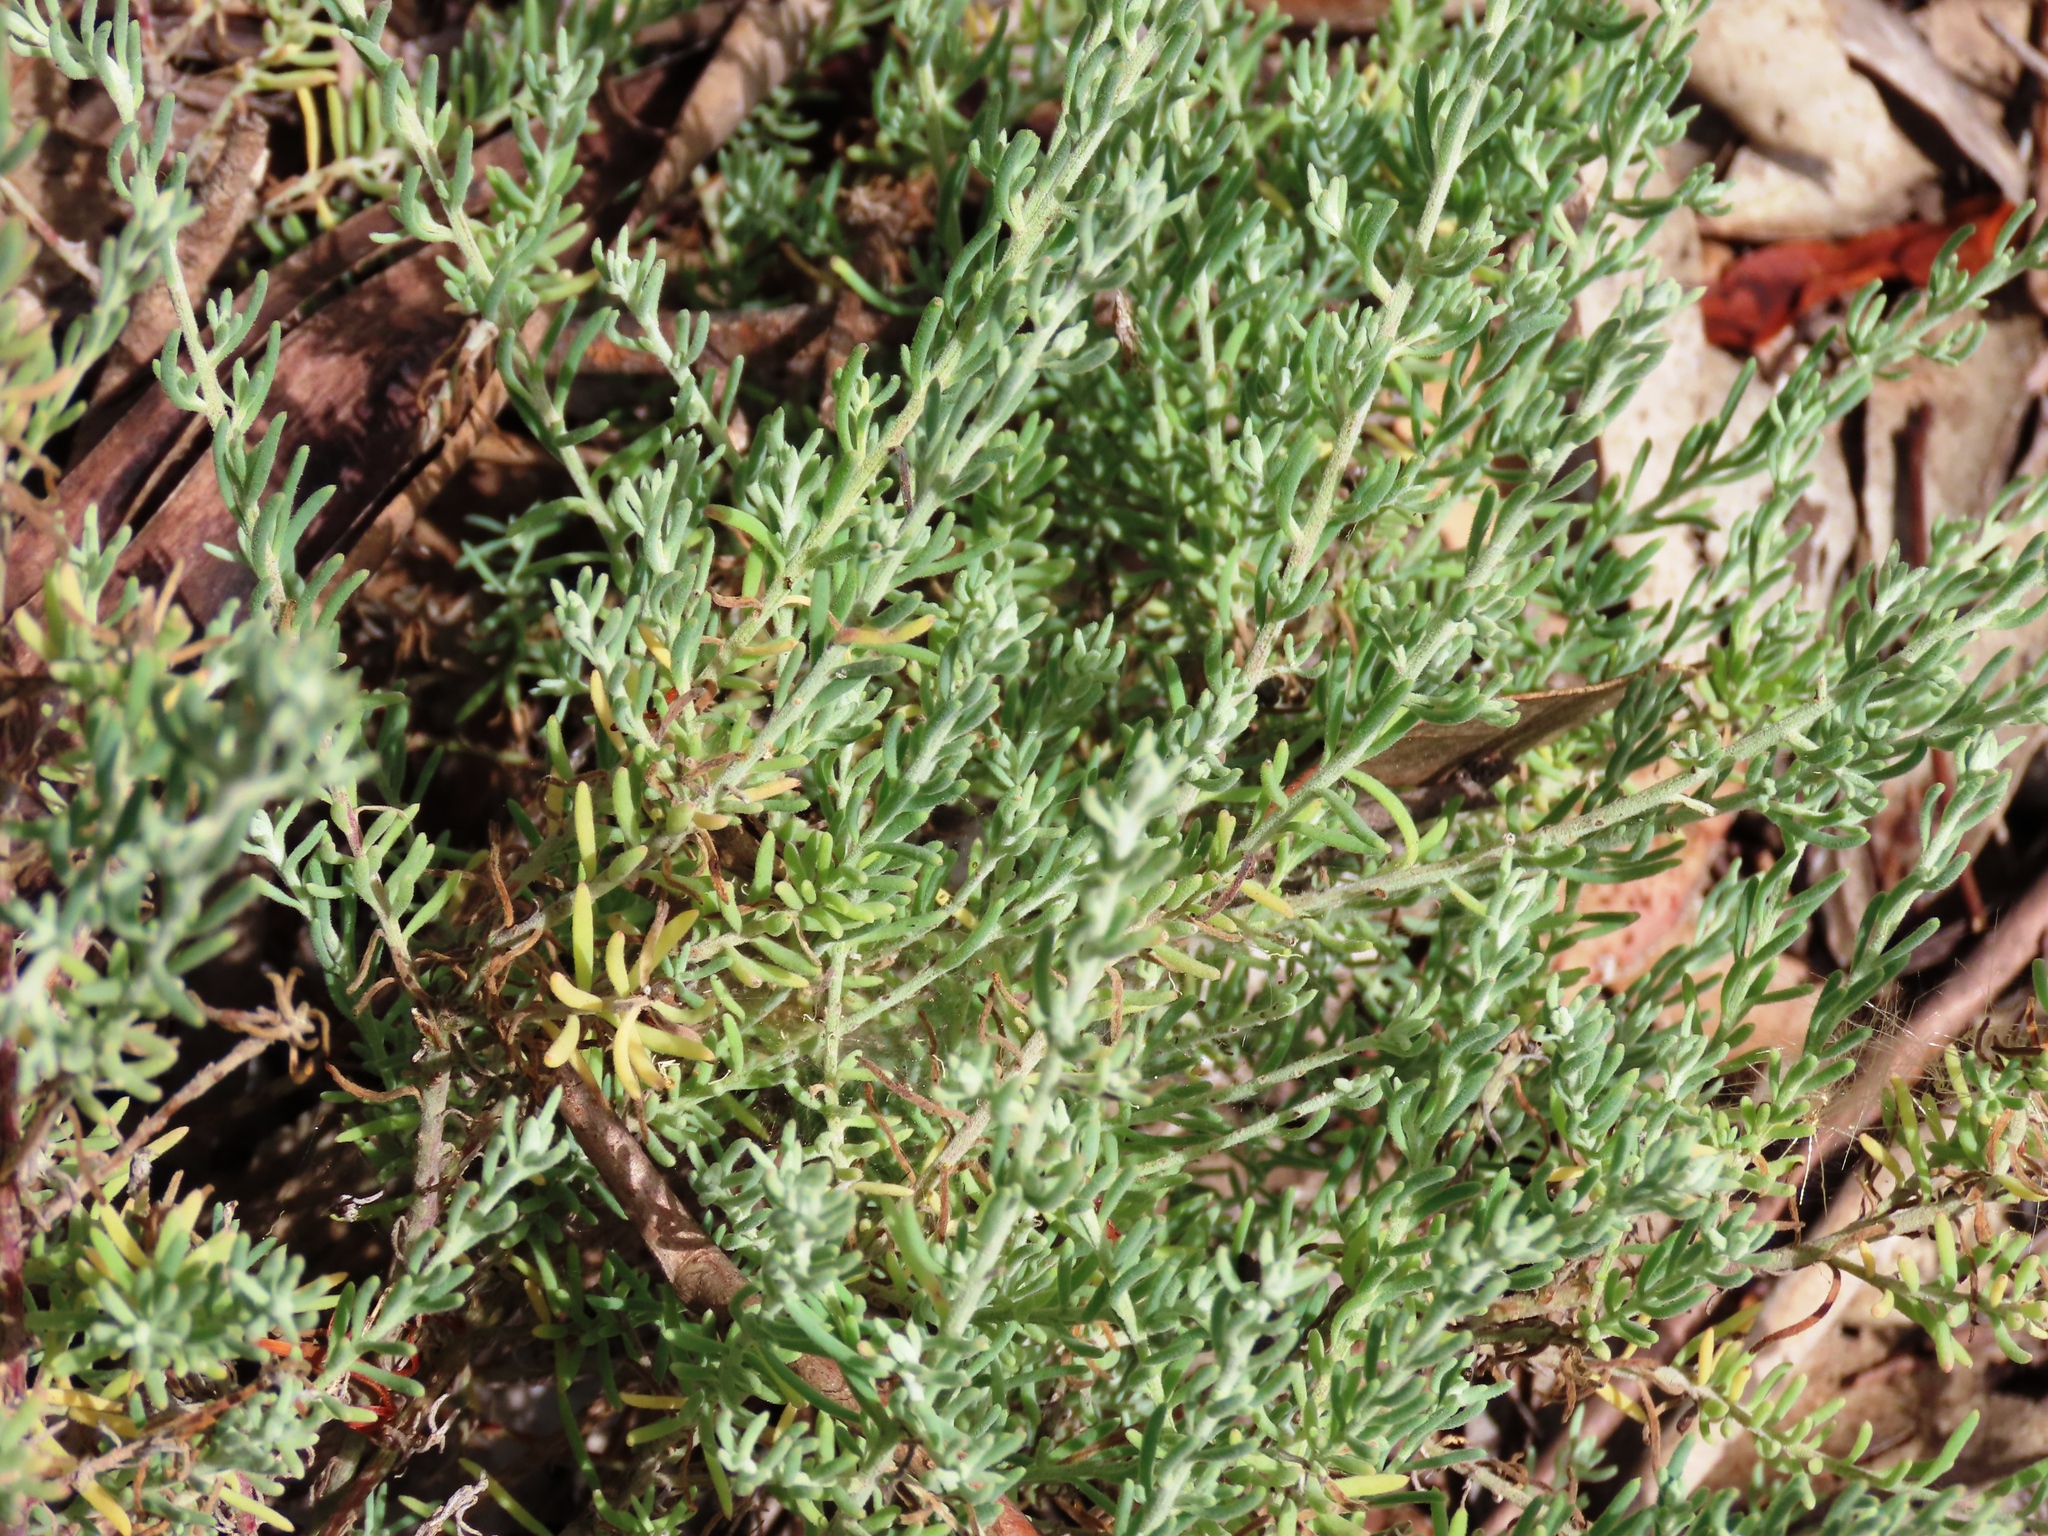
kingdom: Plantae
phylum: Tracheophyta
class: Magnoliopsida
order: Caryophyllales
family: Amaranthaceae
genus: Enchylaena
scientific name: Enchylaena tomentosa
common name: Ruby saltbush
